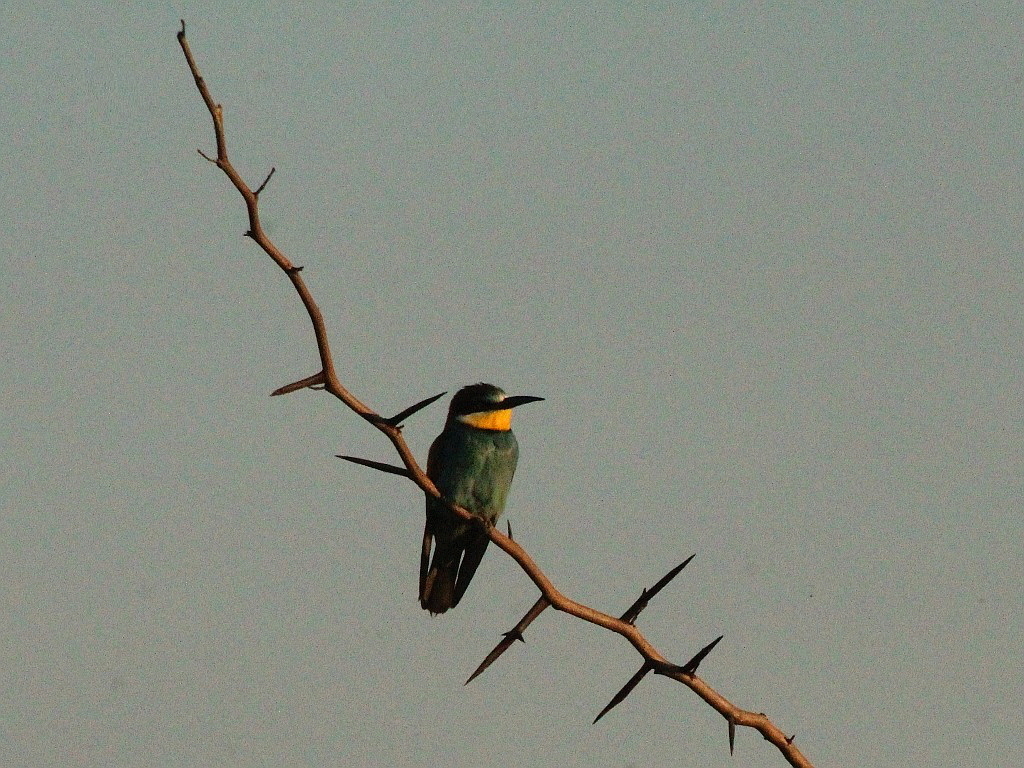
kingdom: Animalia
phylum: Chordata
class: Aves
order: Coraciiformes
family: Meropidae
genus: Merops
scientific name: Merops apiaster
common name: European bee-eater
